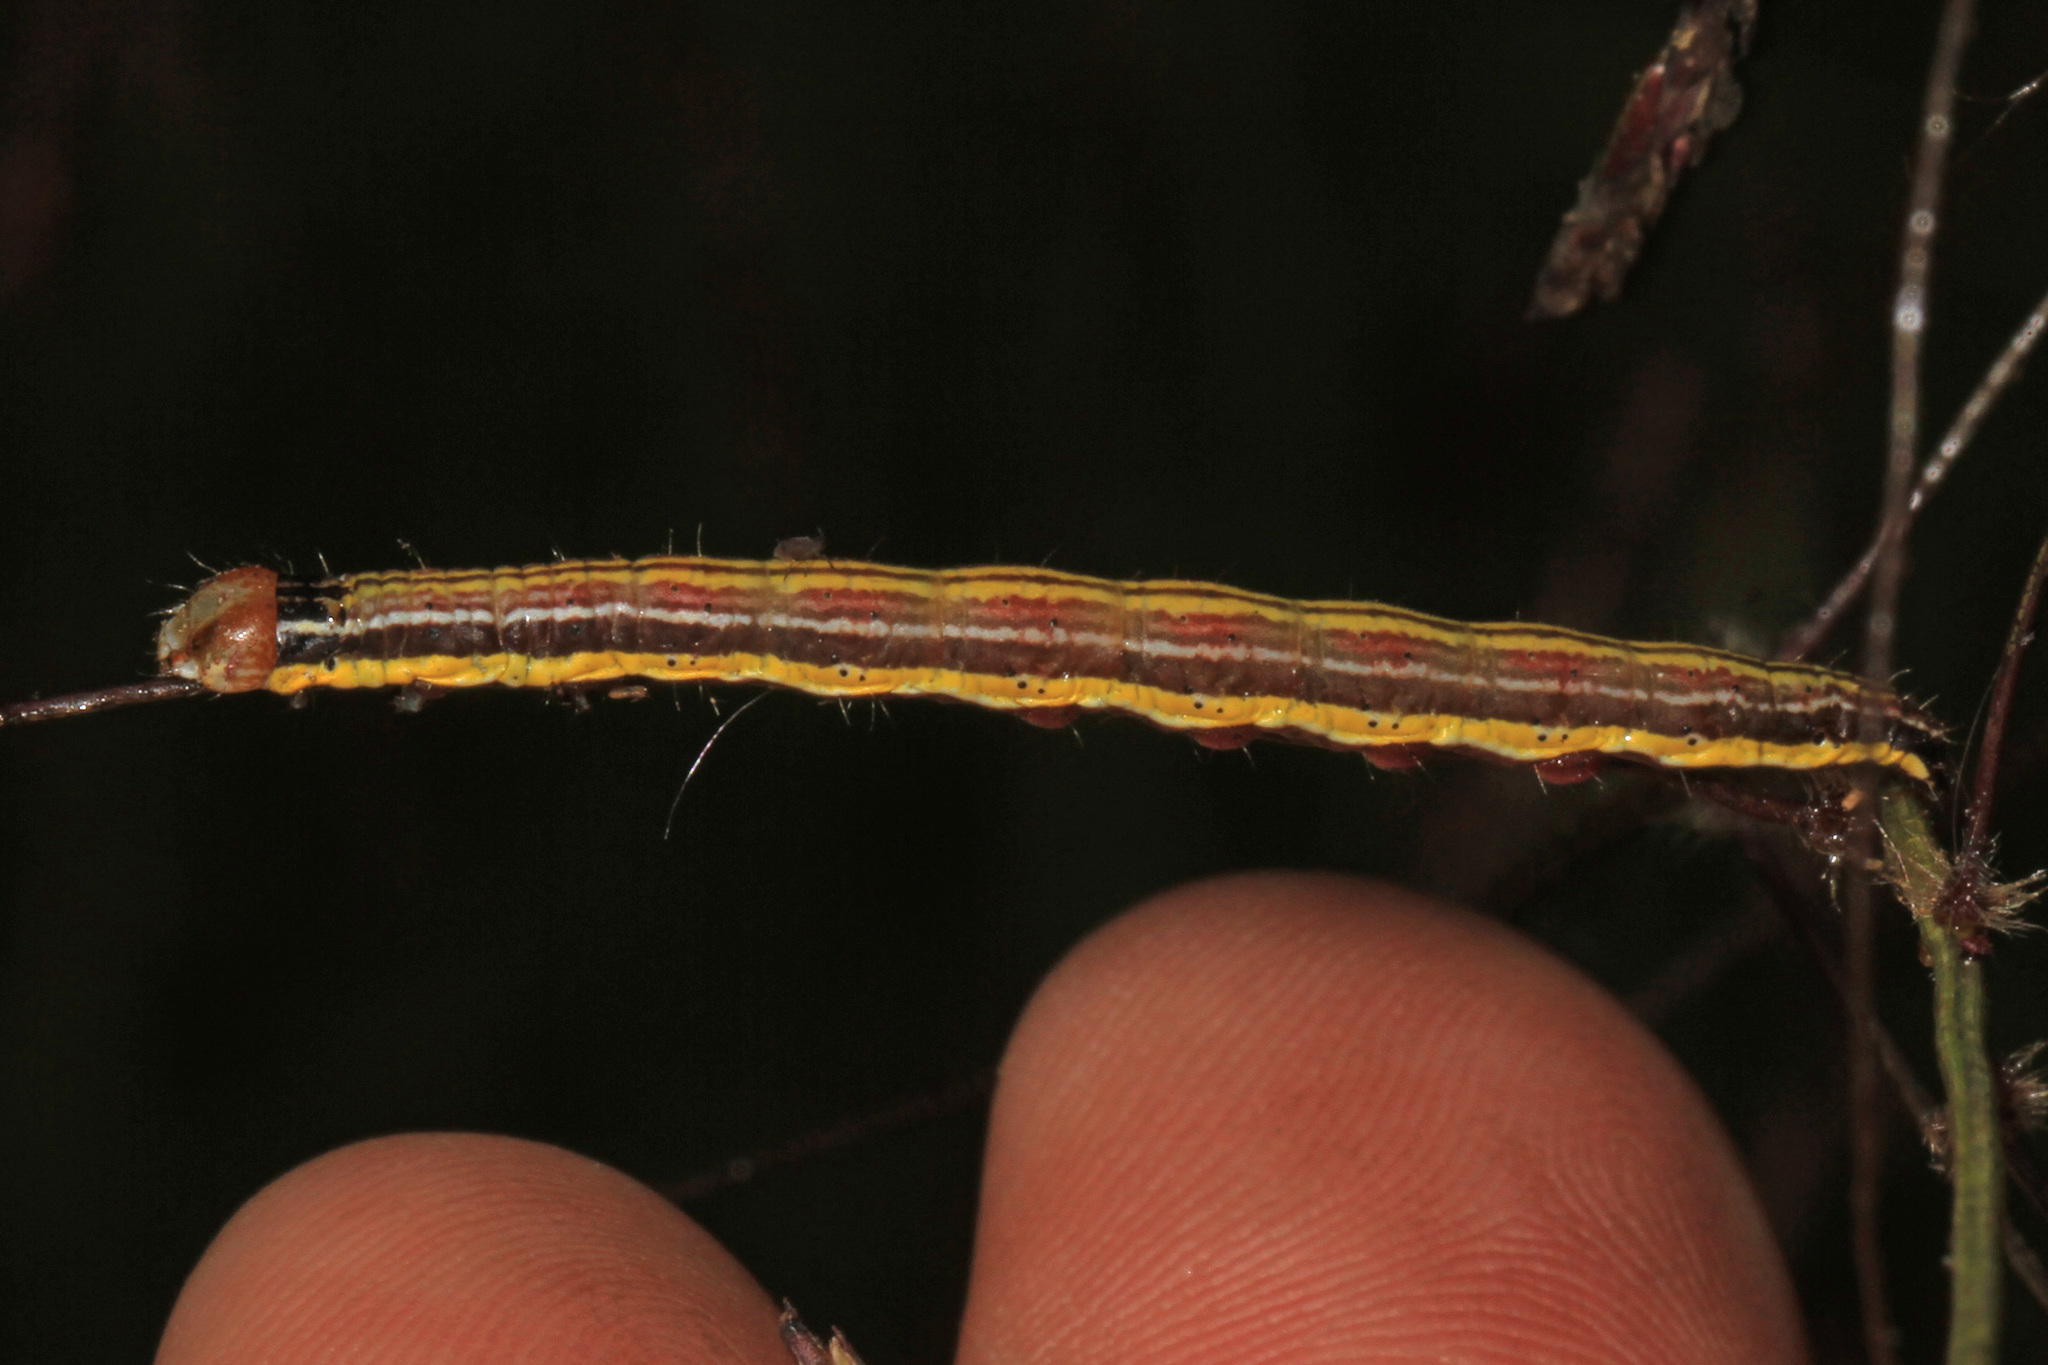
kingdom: Animalia
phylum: Arthropoda
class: Insecta
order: Lepidoptera
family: Noctuidae
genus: Heliocheilus
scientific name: Heliocheilus lupata
